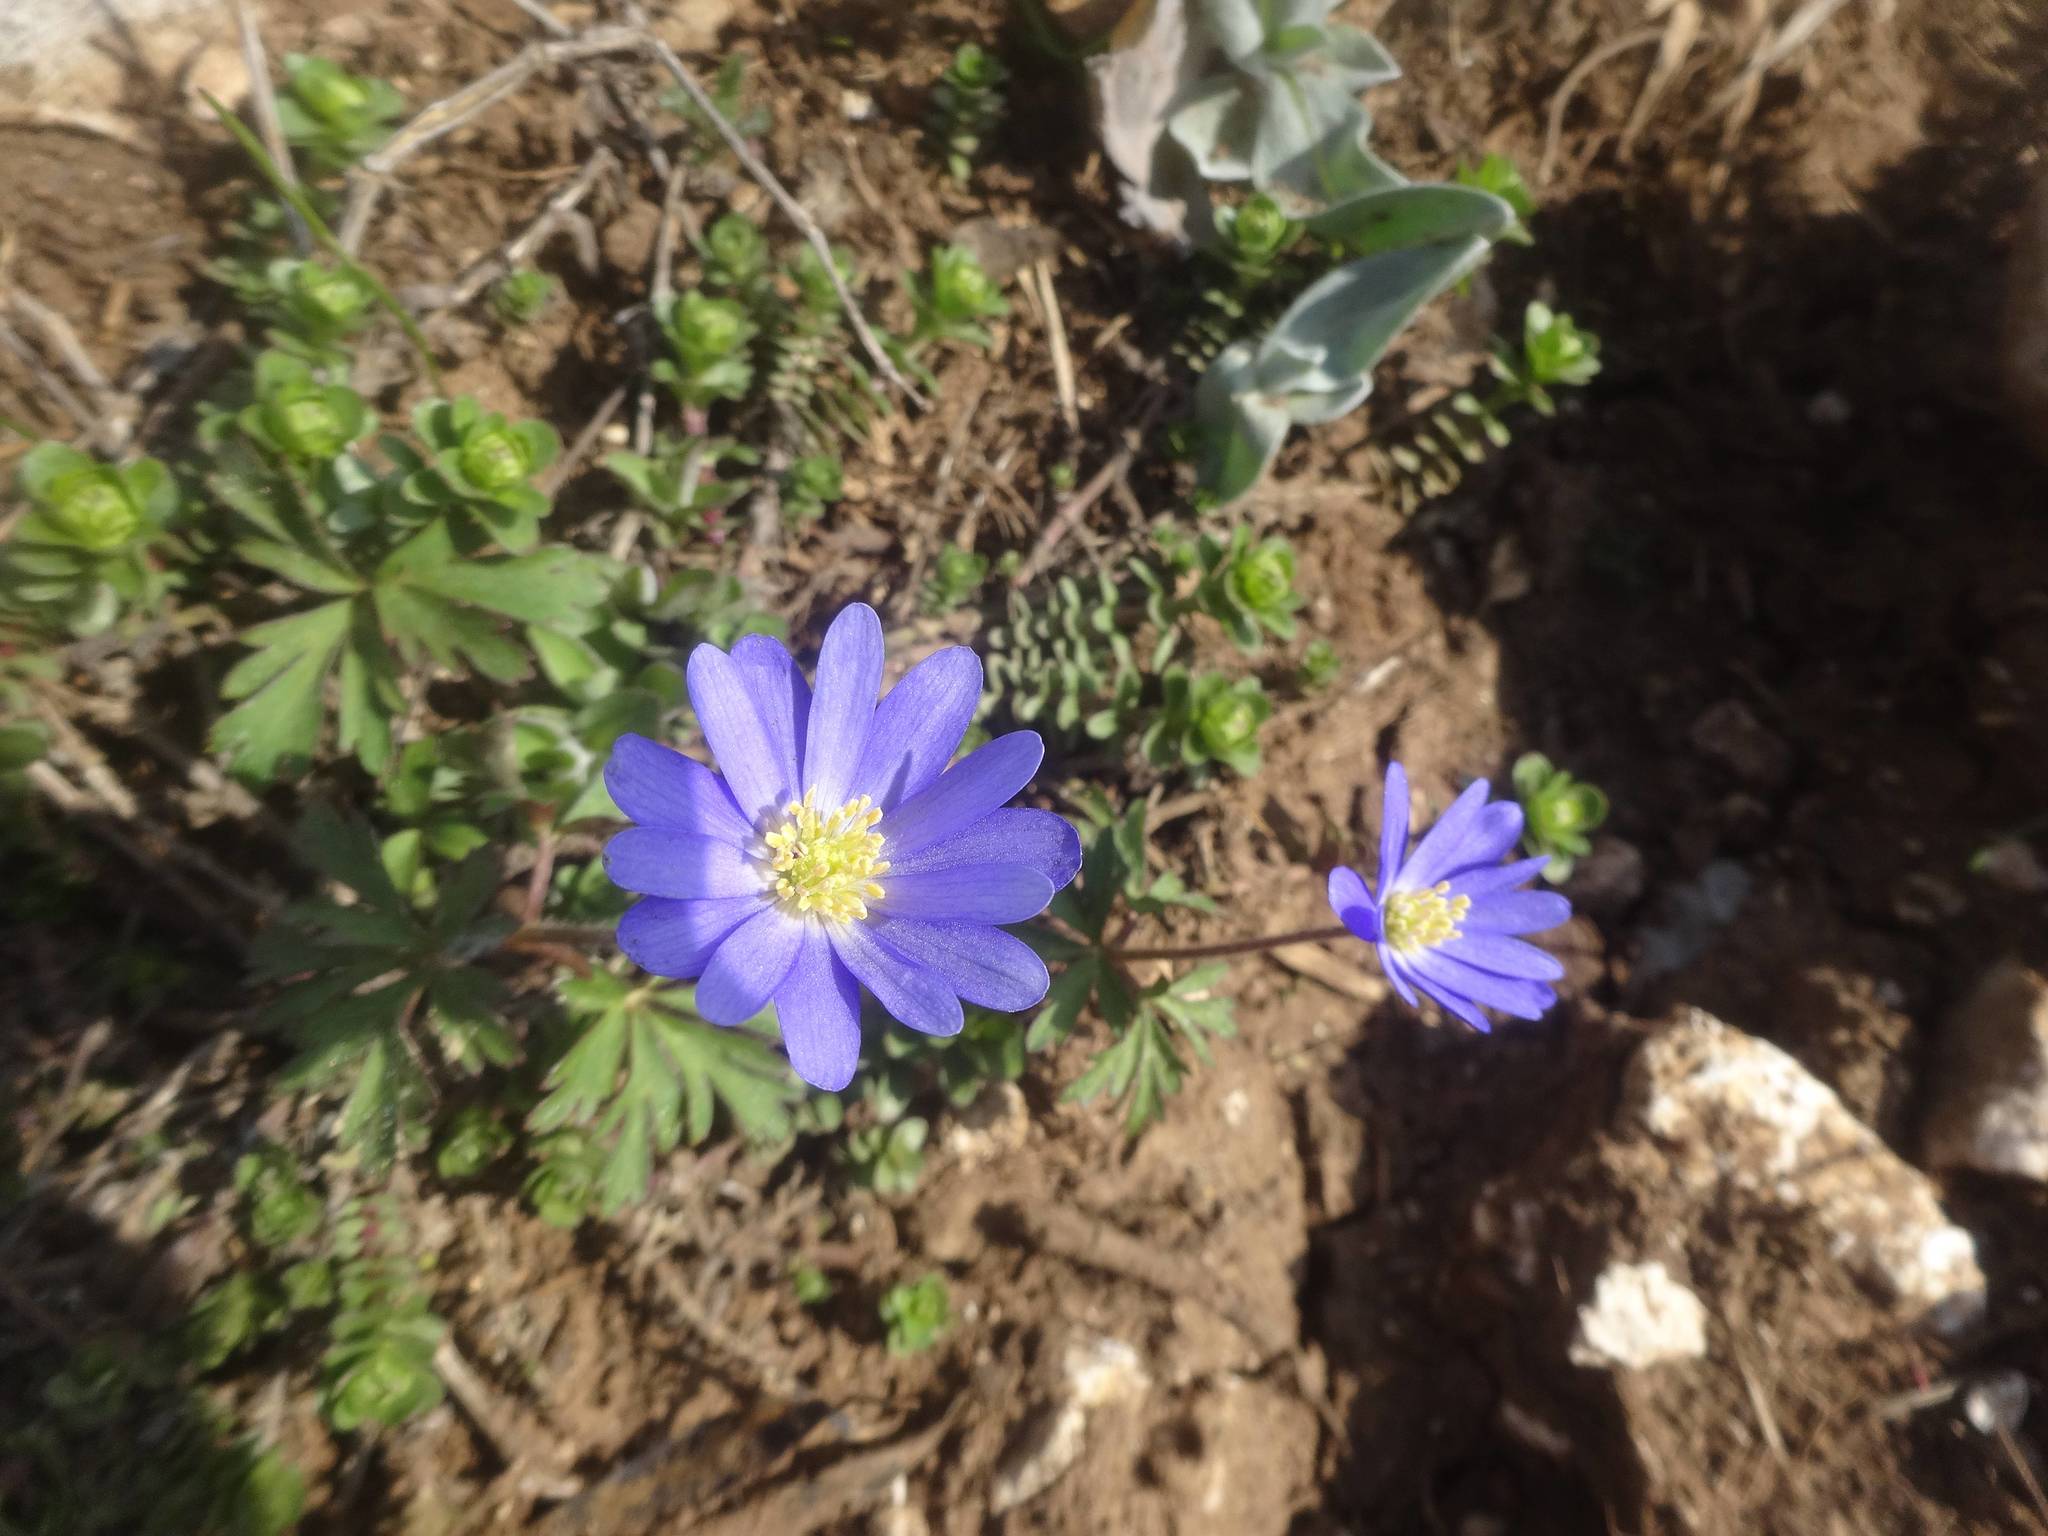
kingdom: Plantae
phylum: Tracheophyta
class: Magnoliopsida
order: Ranunculales
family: Ranunculaceae
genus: Anemone
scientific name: Anemone blanda
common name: Balkan anemone
